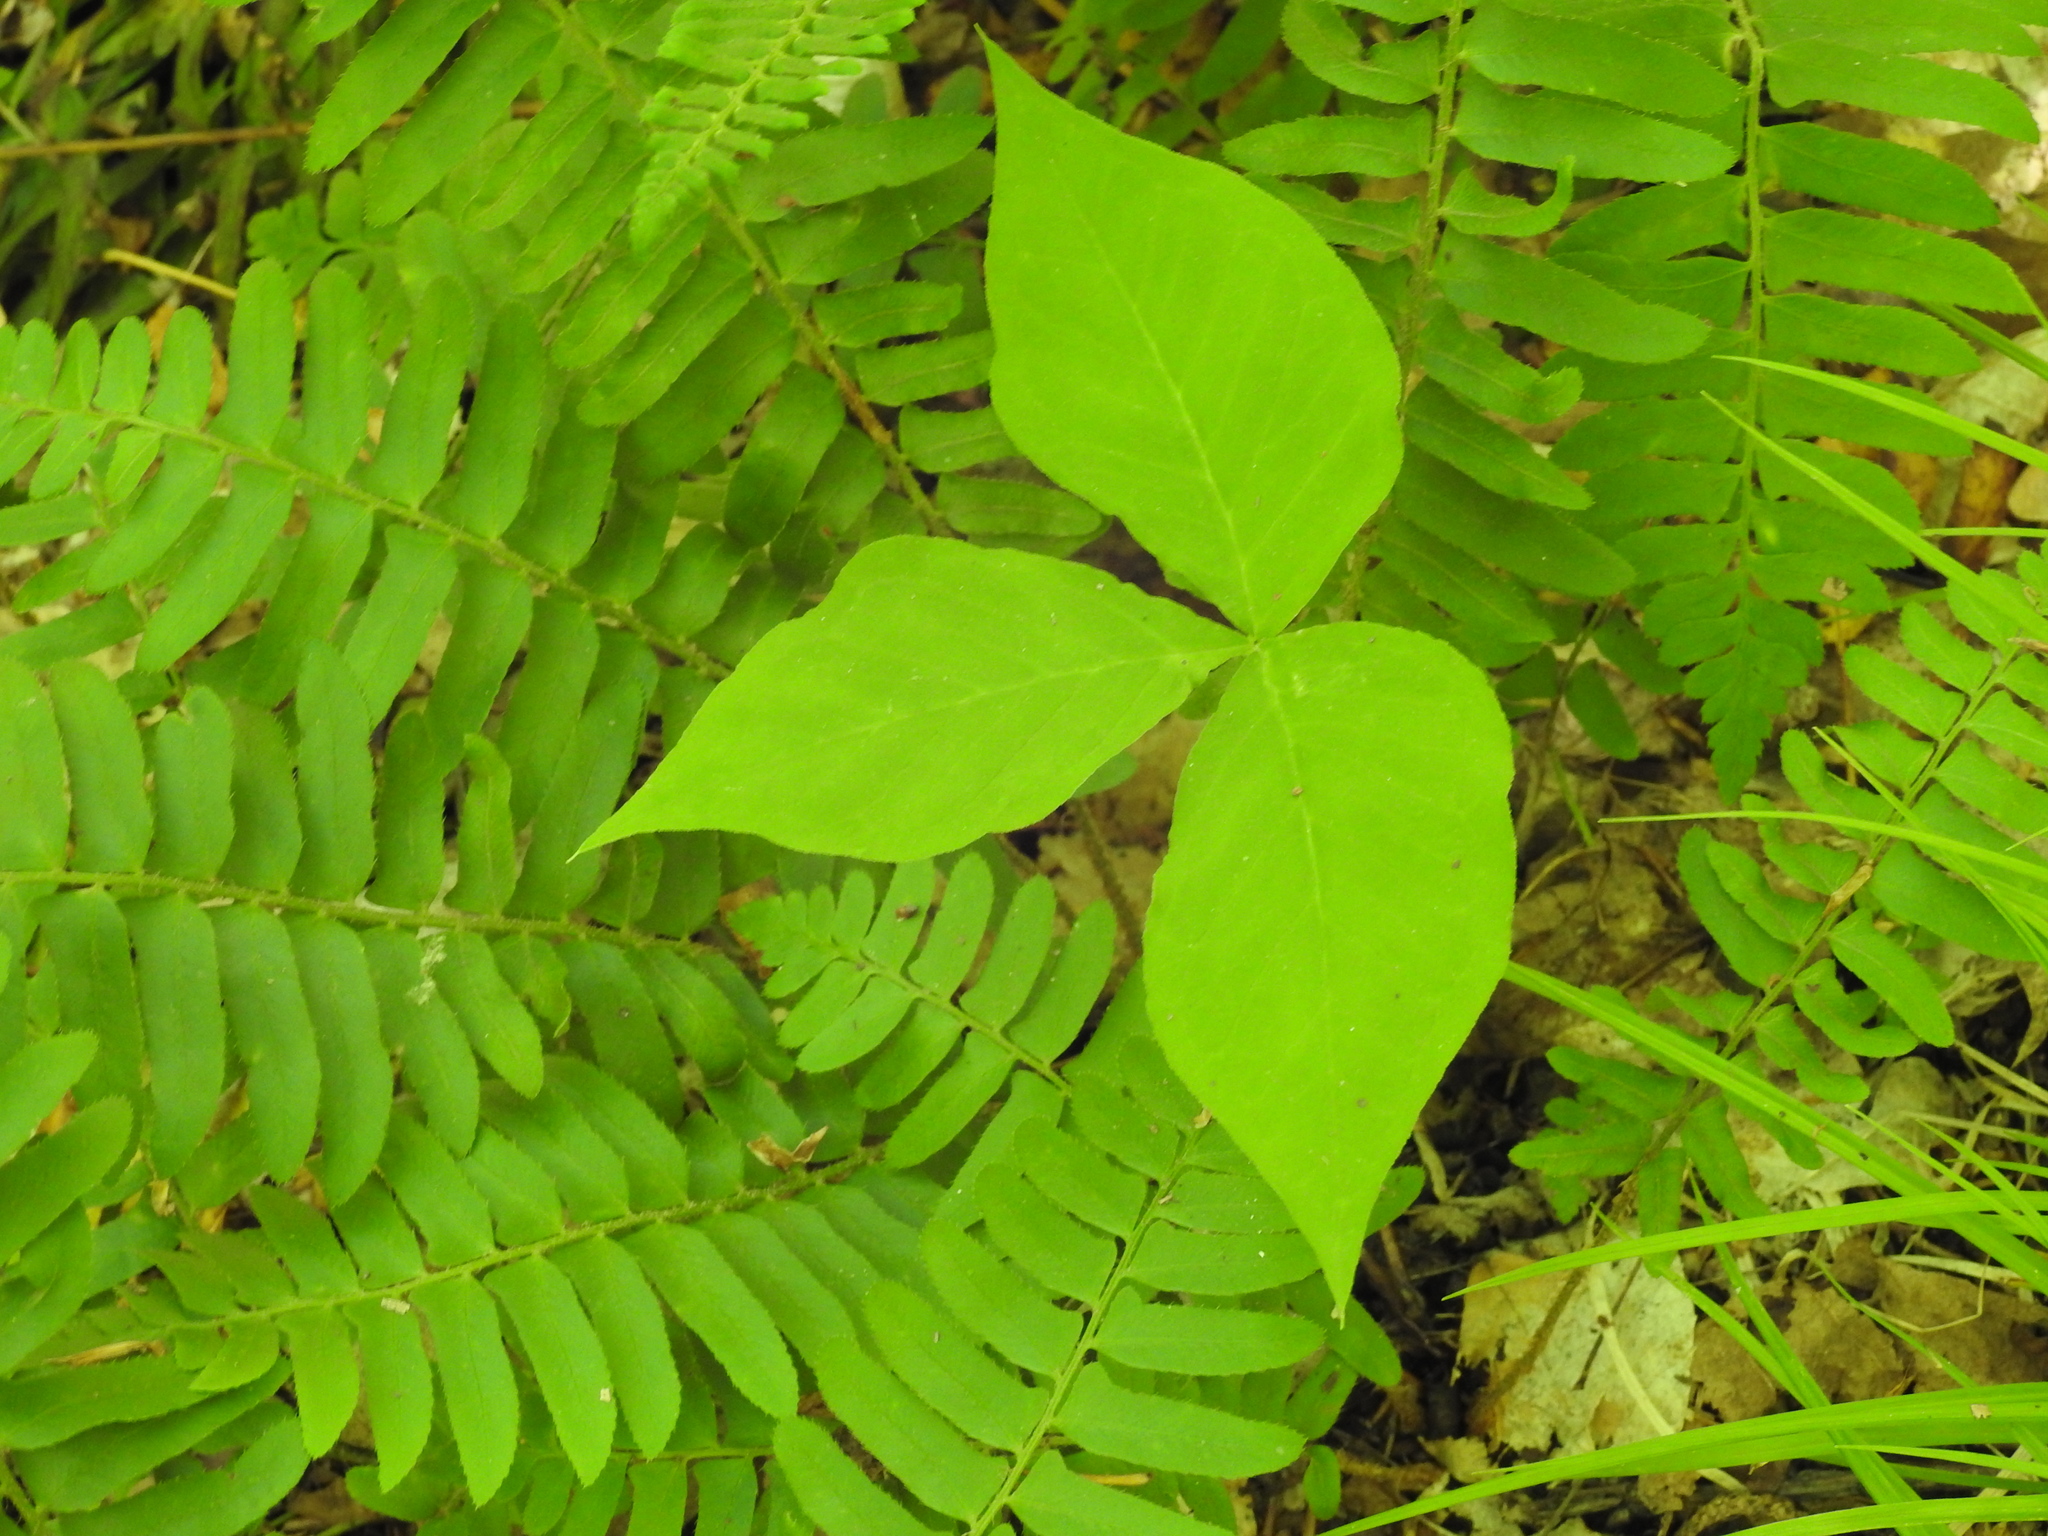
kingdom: Plantae
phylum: Tracheophyta
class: Liliopsida
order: Alismatales
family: Araceae
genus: Arisaema
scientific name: Arisaema triphyllum
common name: Jack-in-the-pulpit
